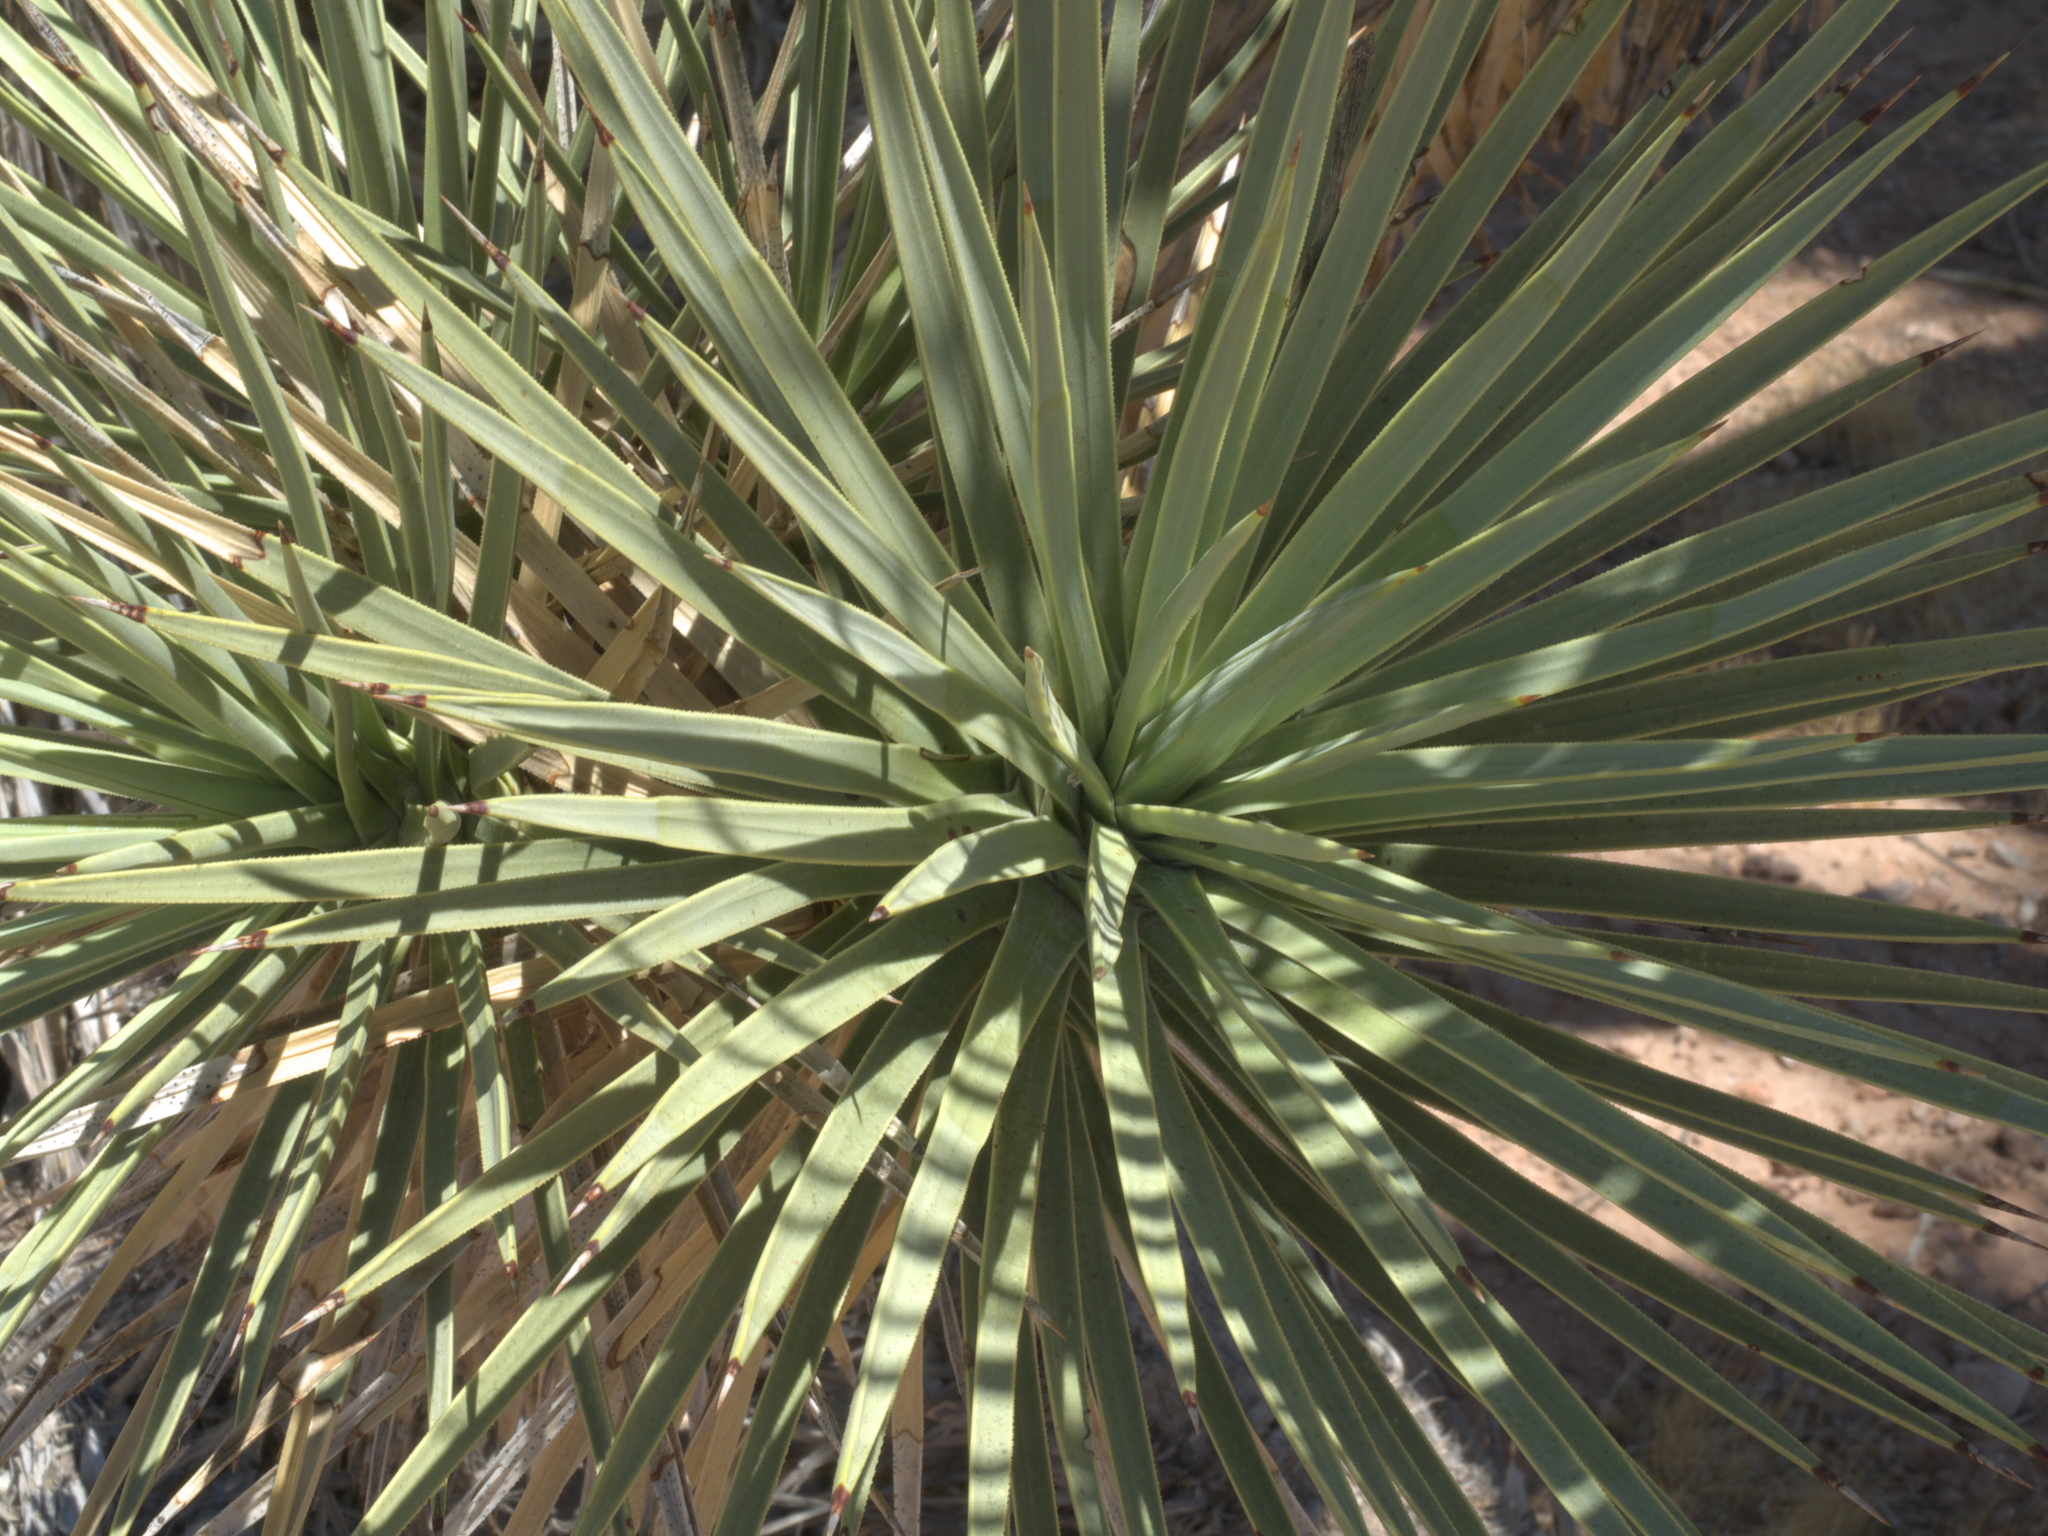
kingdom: Plantae
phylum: Tracheophyta
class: Liliopsida
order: Asparagales
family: Asparagaceae
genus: Yucca
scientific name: Yucca brevifolia
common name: Joshua tree
